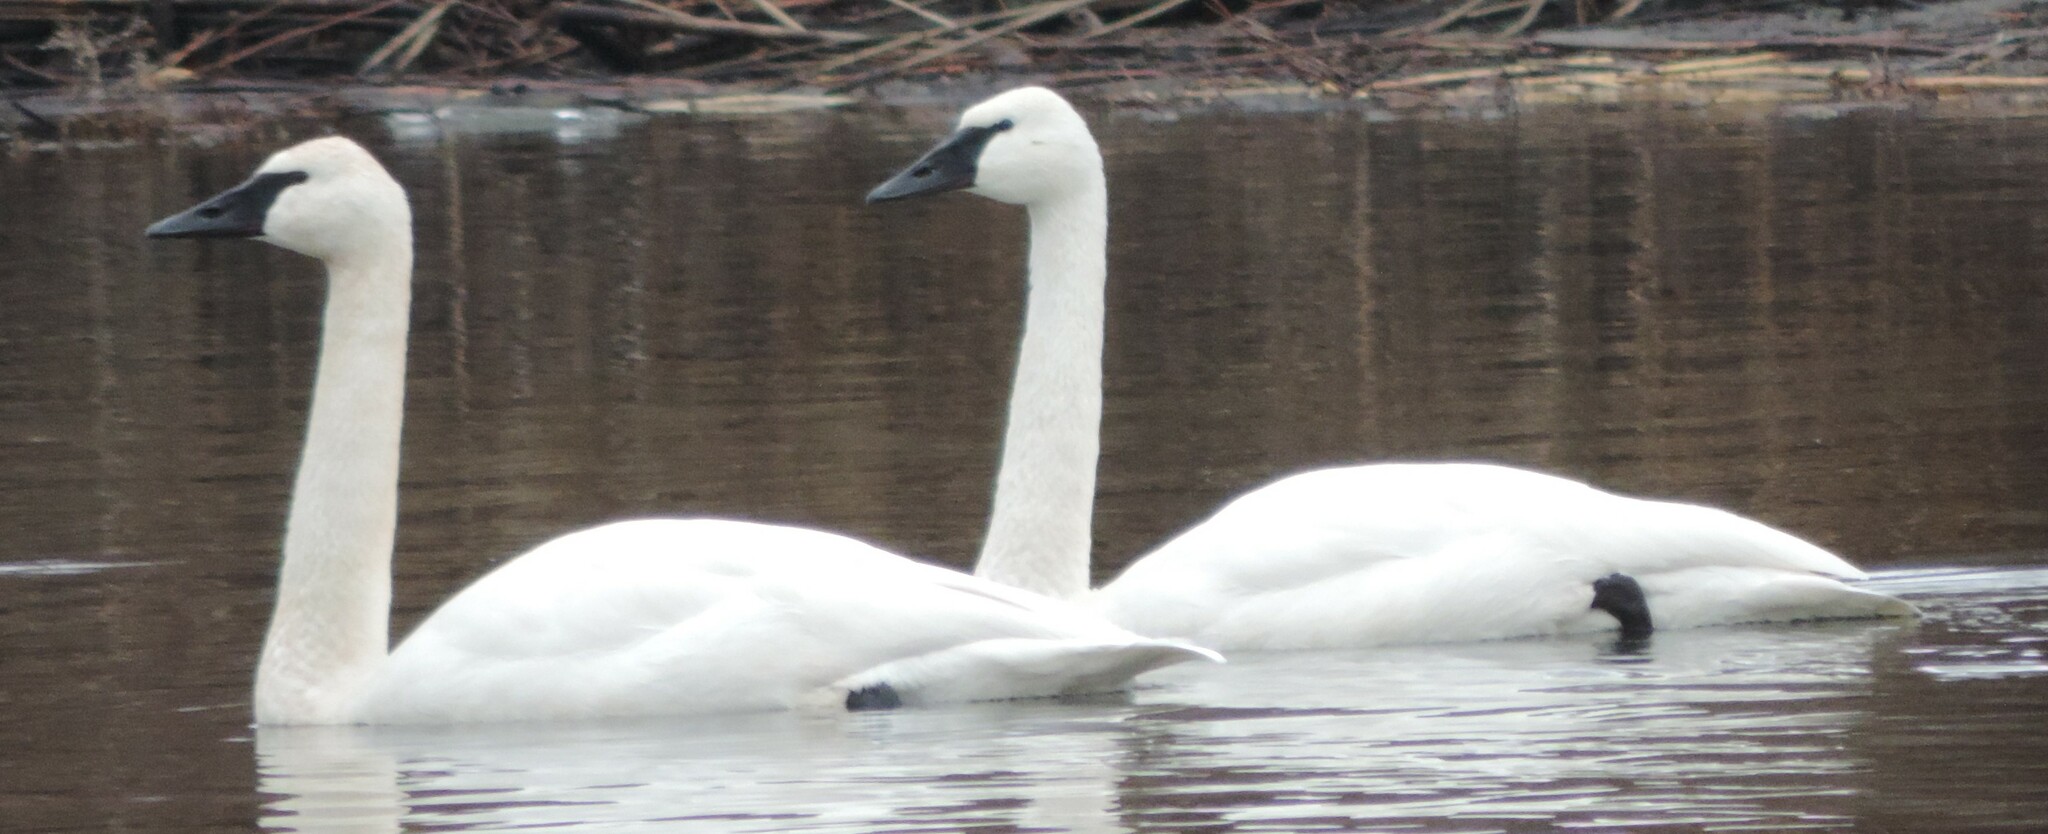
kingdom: Animalia
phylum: Chordata
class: Aves
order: Anseriformes
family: Anatidae
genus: Cygnus
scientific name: Cygnus buccinator
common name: Trumpeter swan
